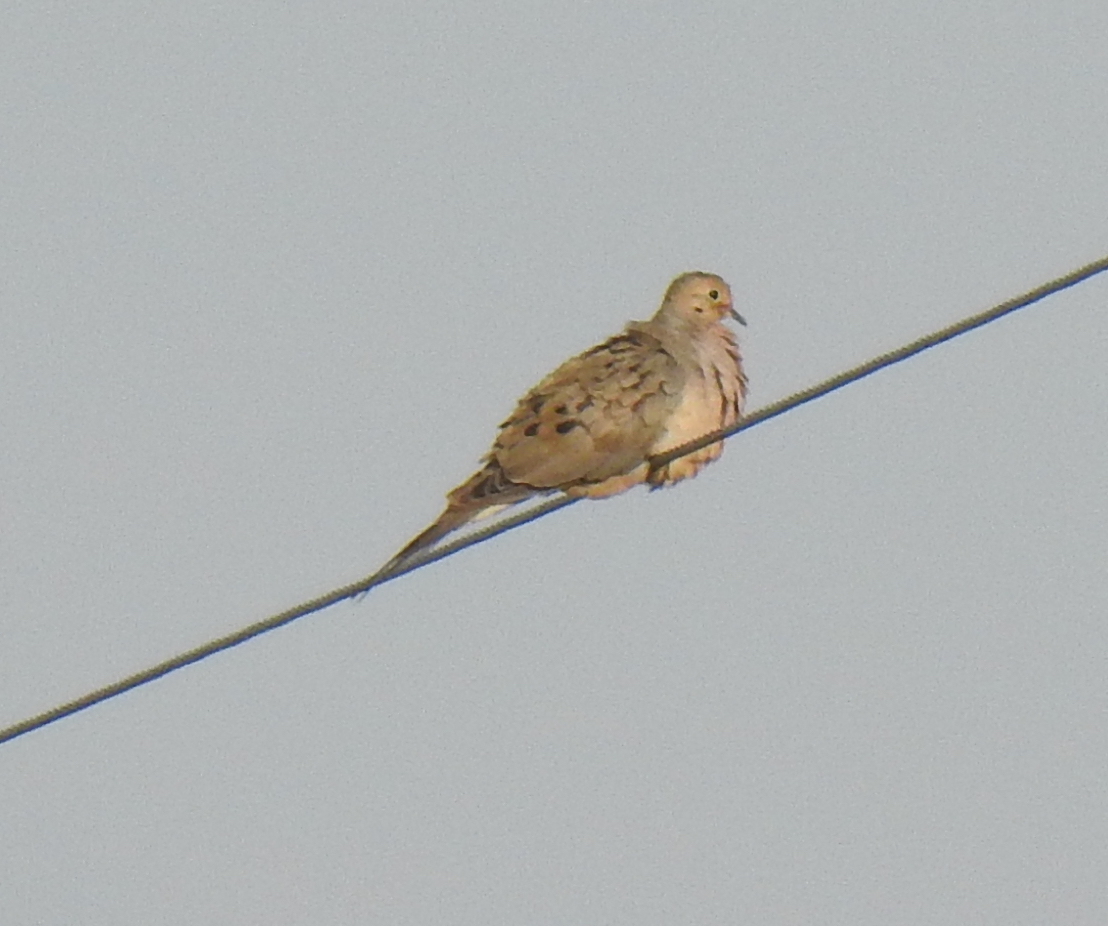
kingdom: Animalia
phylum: Chordata
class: Aves
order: Columbiformes
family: Columbidae
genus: Zenaida
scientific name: Zenaida macroura
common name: Mourning dove
